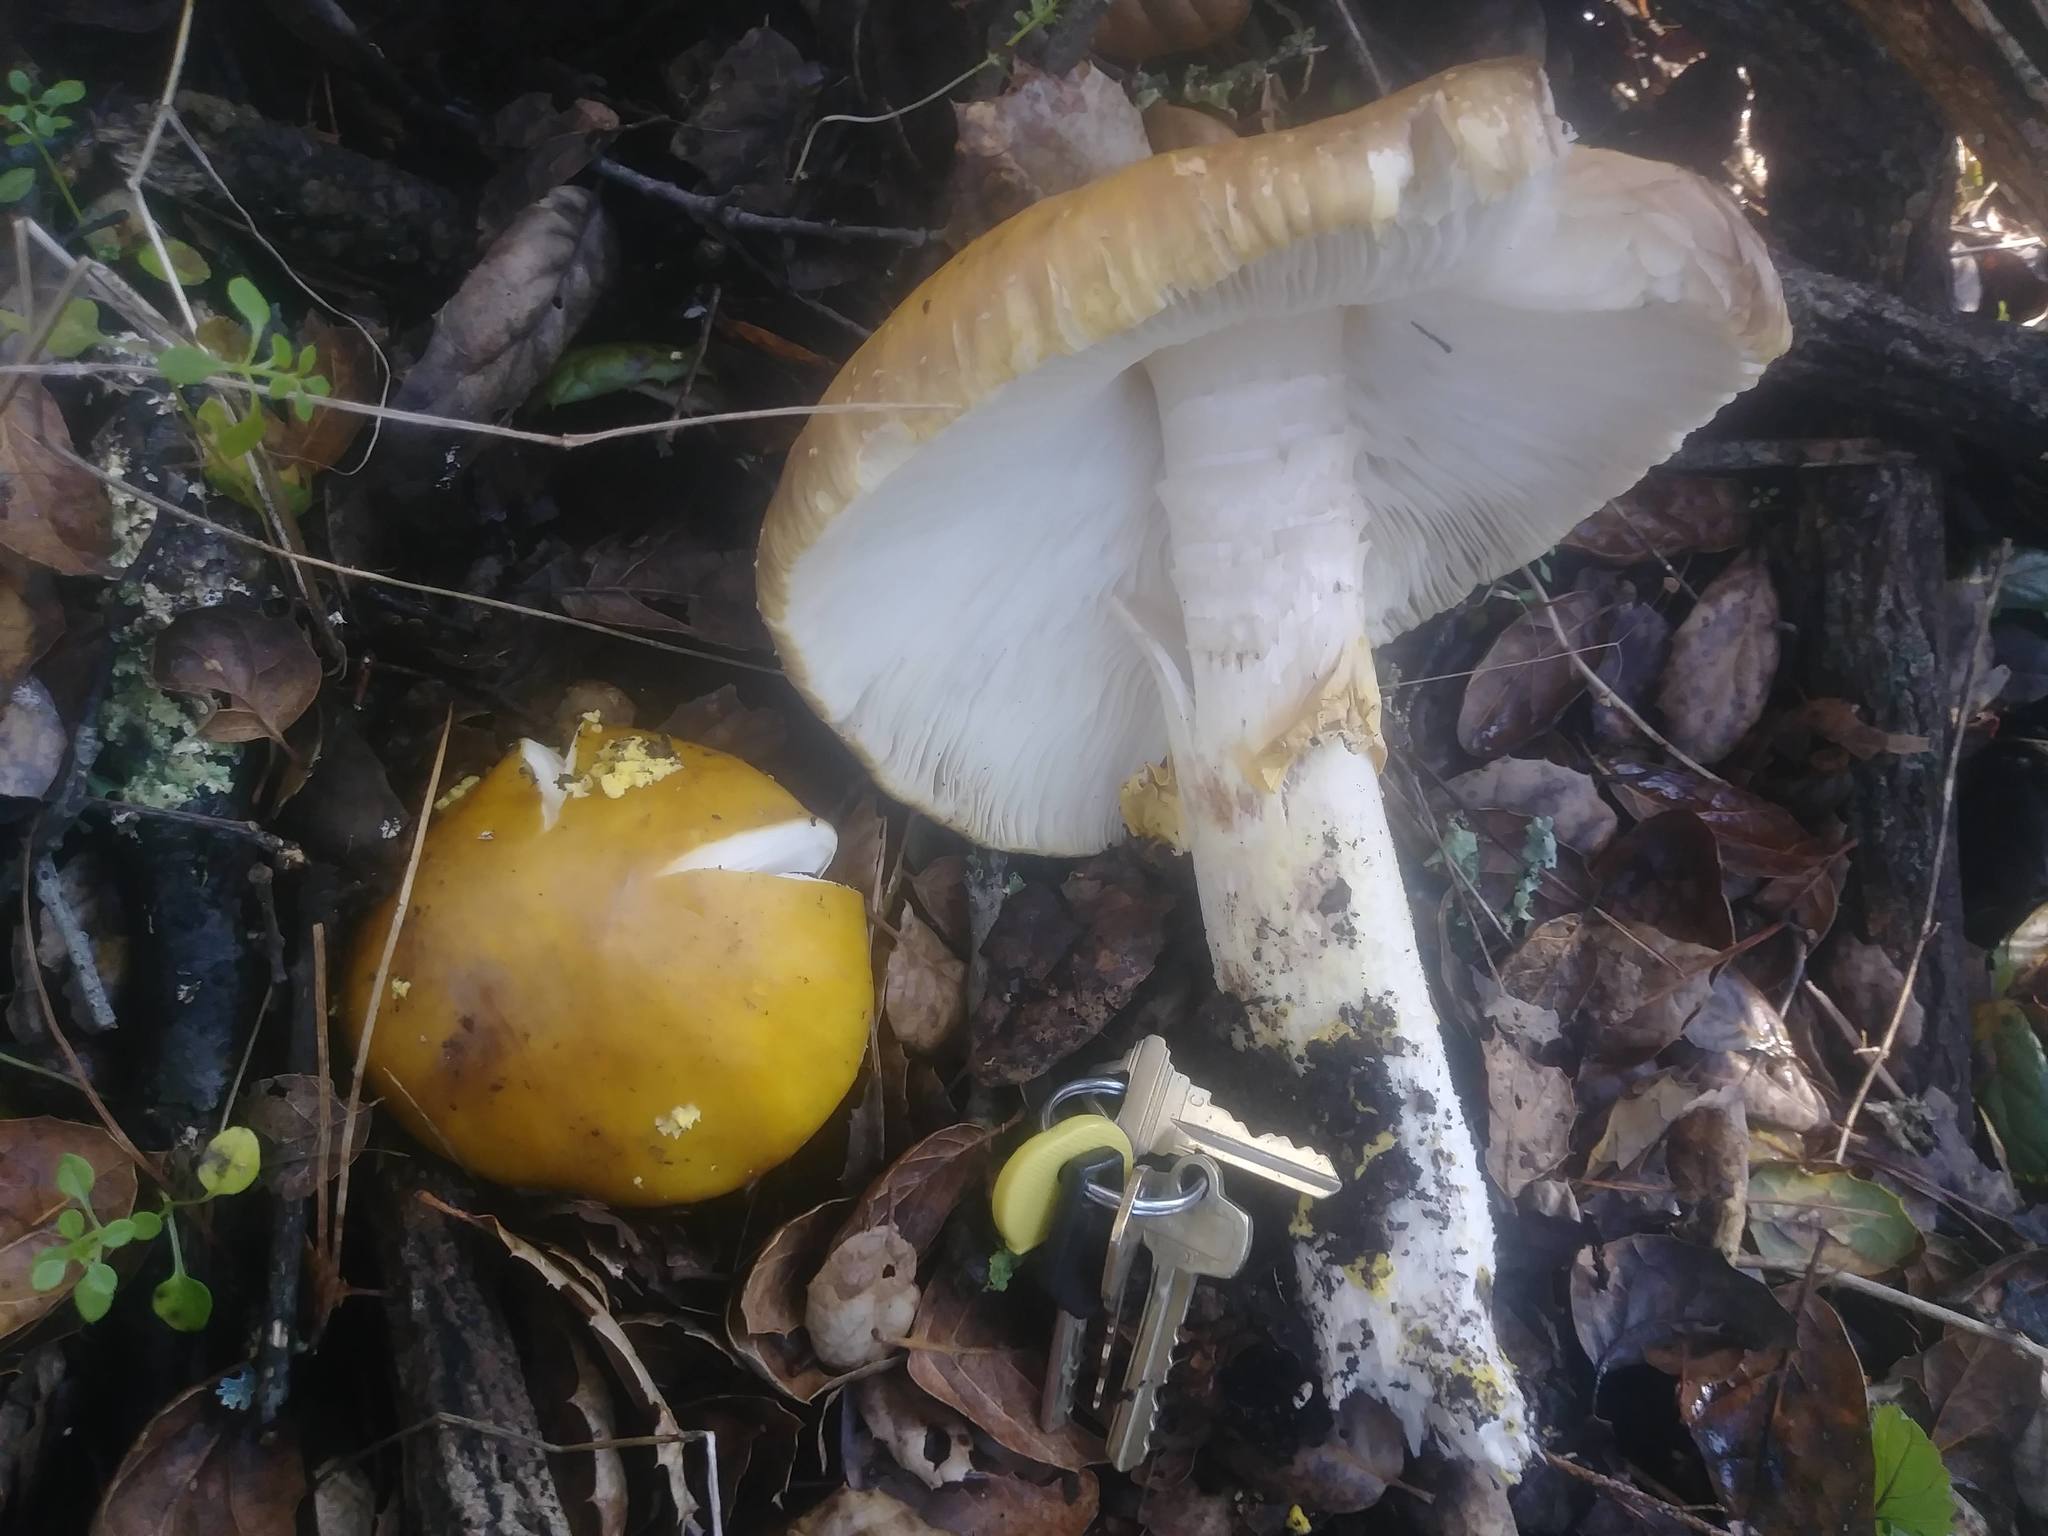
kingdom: Fungi
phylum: Basidiomycota
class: Agaricomycetes
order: Agaricales
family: Amanitaceae
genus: Amanita
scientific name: Amanita augusta
